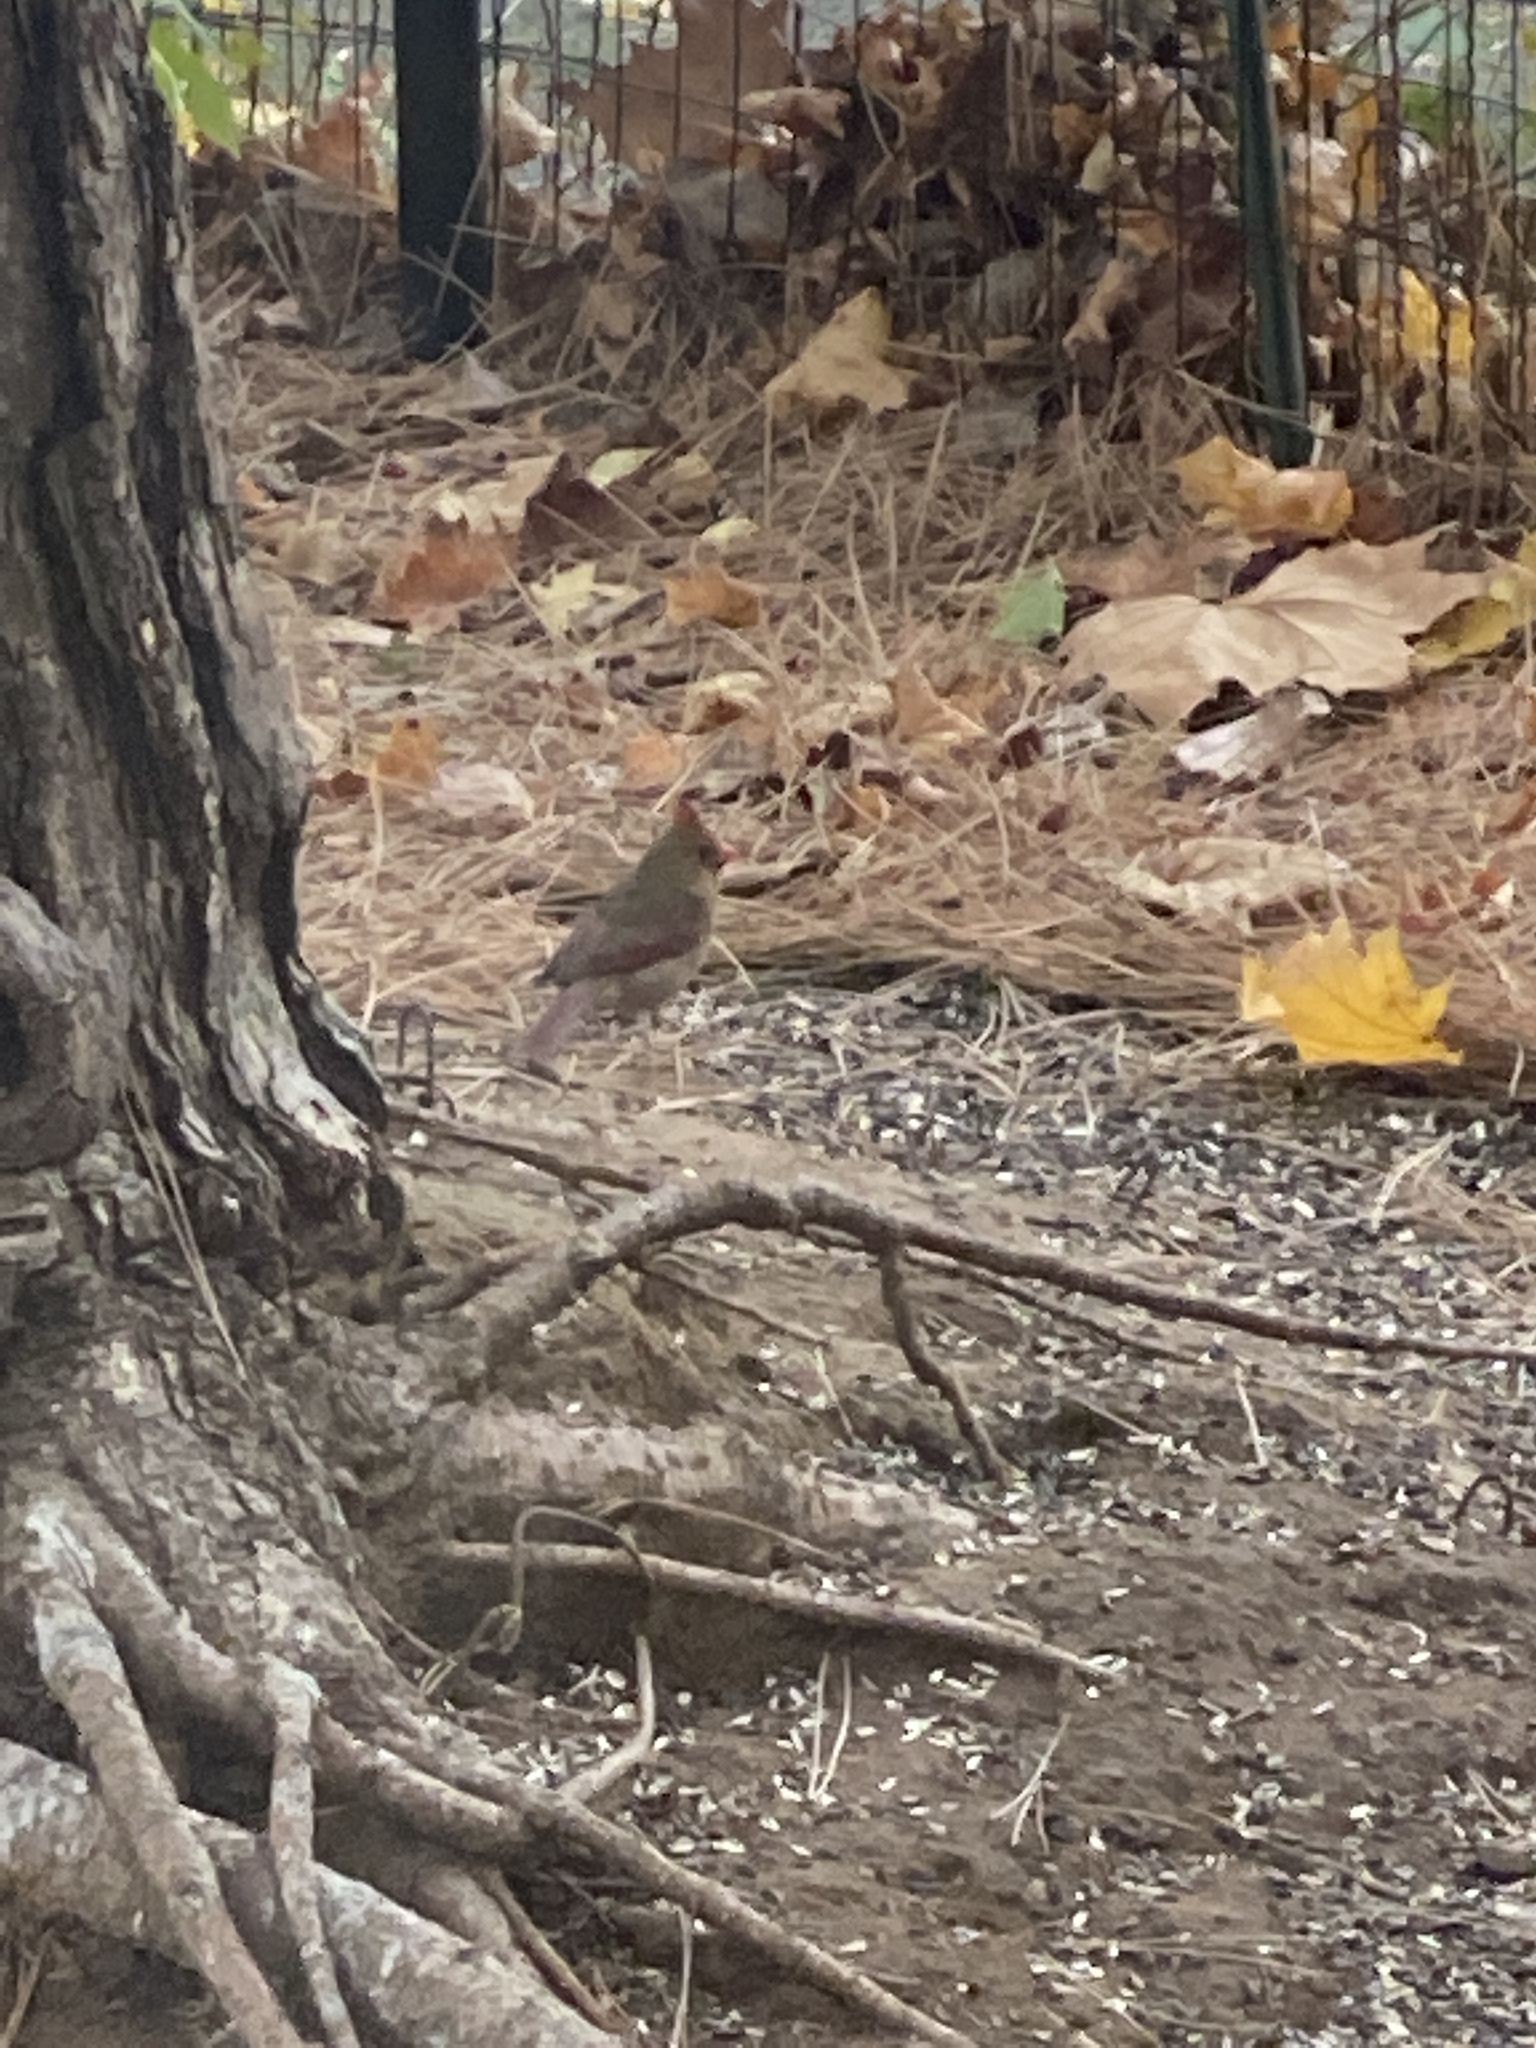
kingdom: Animalia
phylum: Chordata
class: Aves
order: Passeriformes
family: Cardinalidae
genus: Cardinalis
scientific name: Cardinalis cardinalis
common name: Northern cardinal
